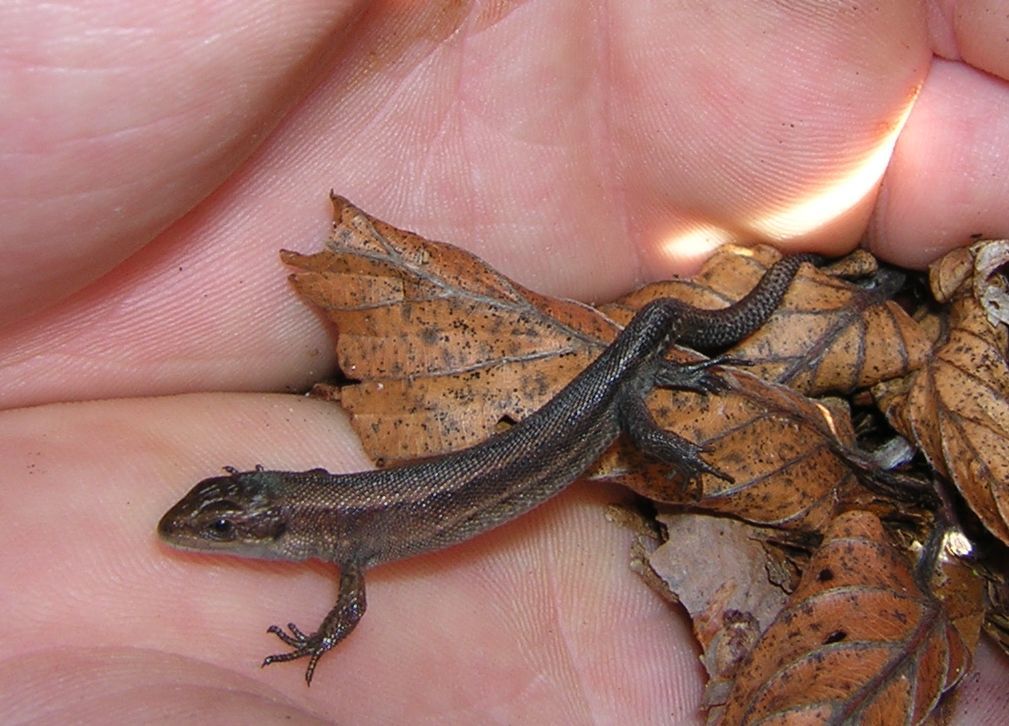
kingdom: Animalia
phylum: Chordata
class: Squamata
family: Lacertidae
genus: Zootoca
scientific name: Zootoca vivipara
